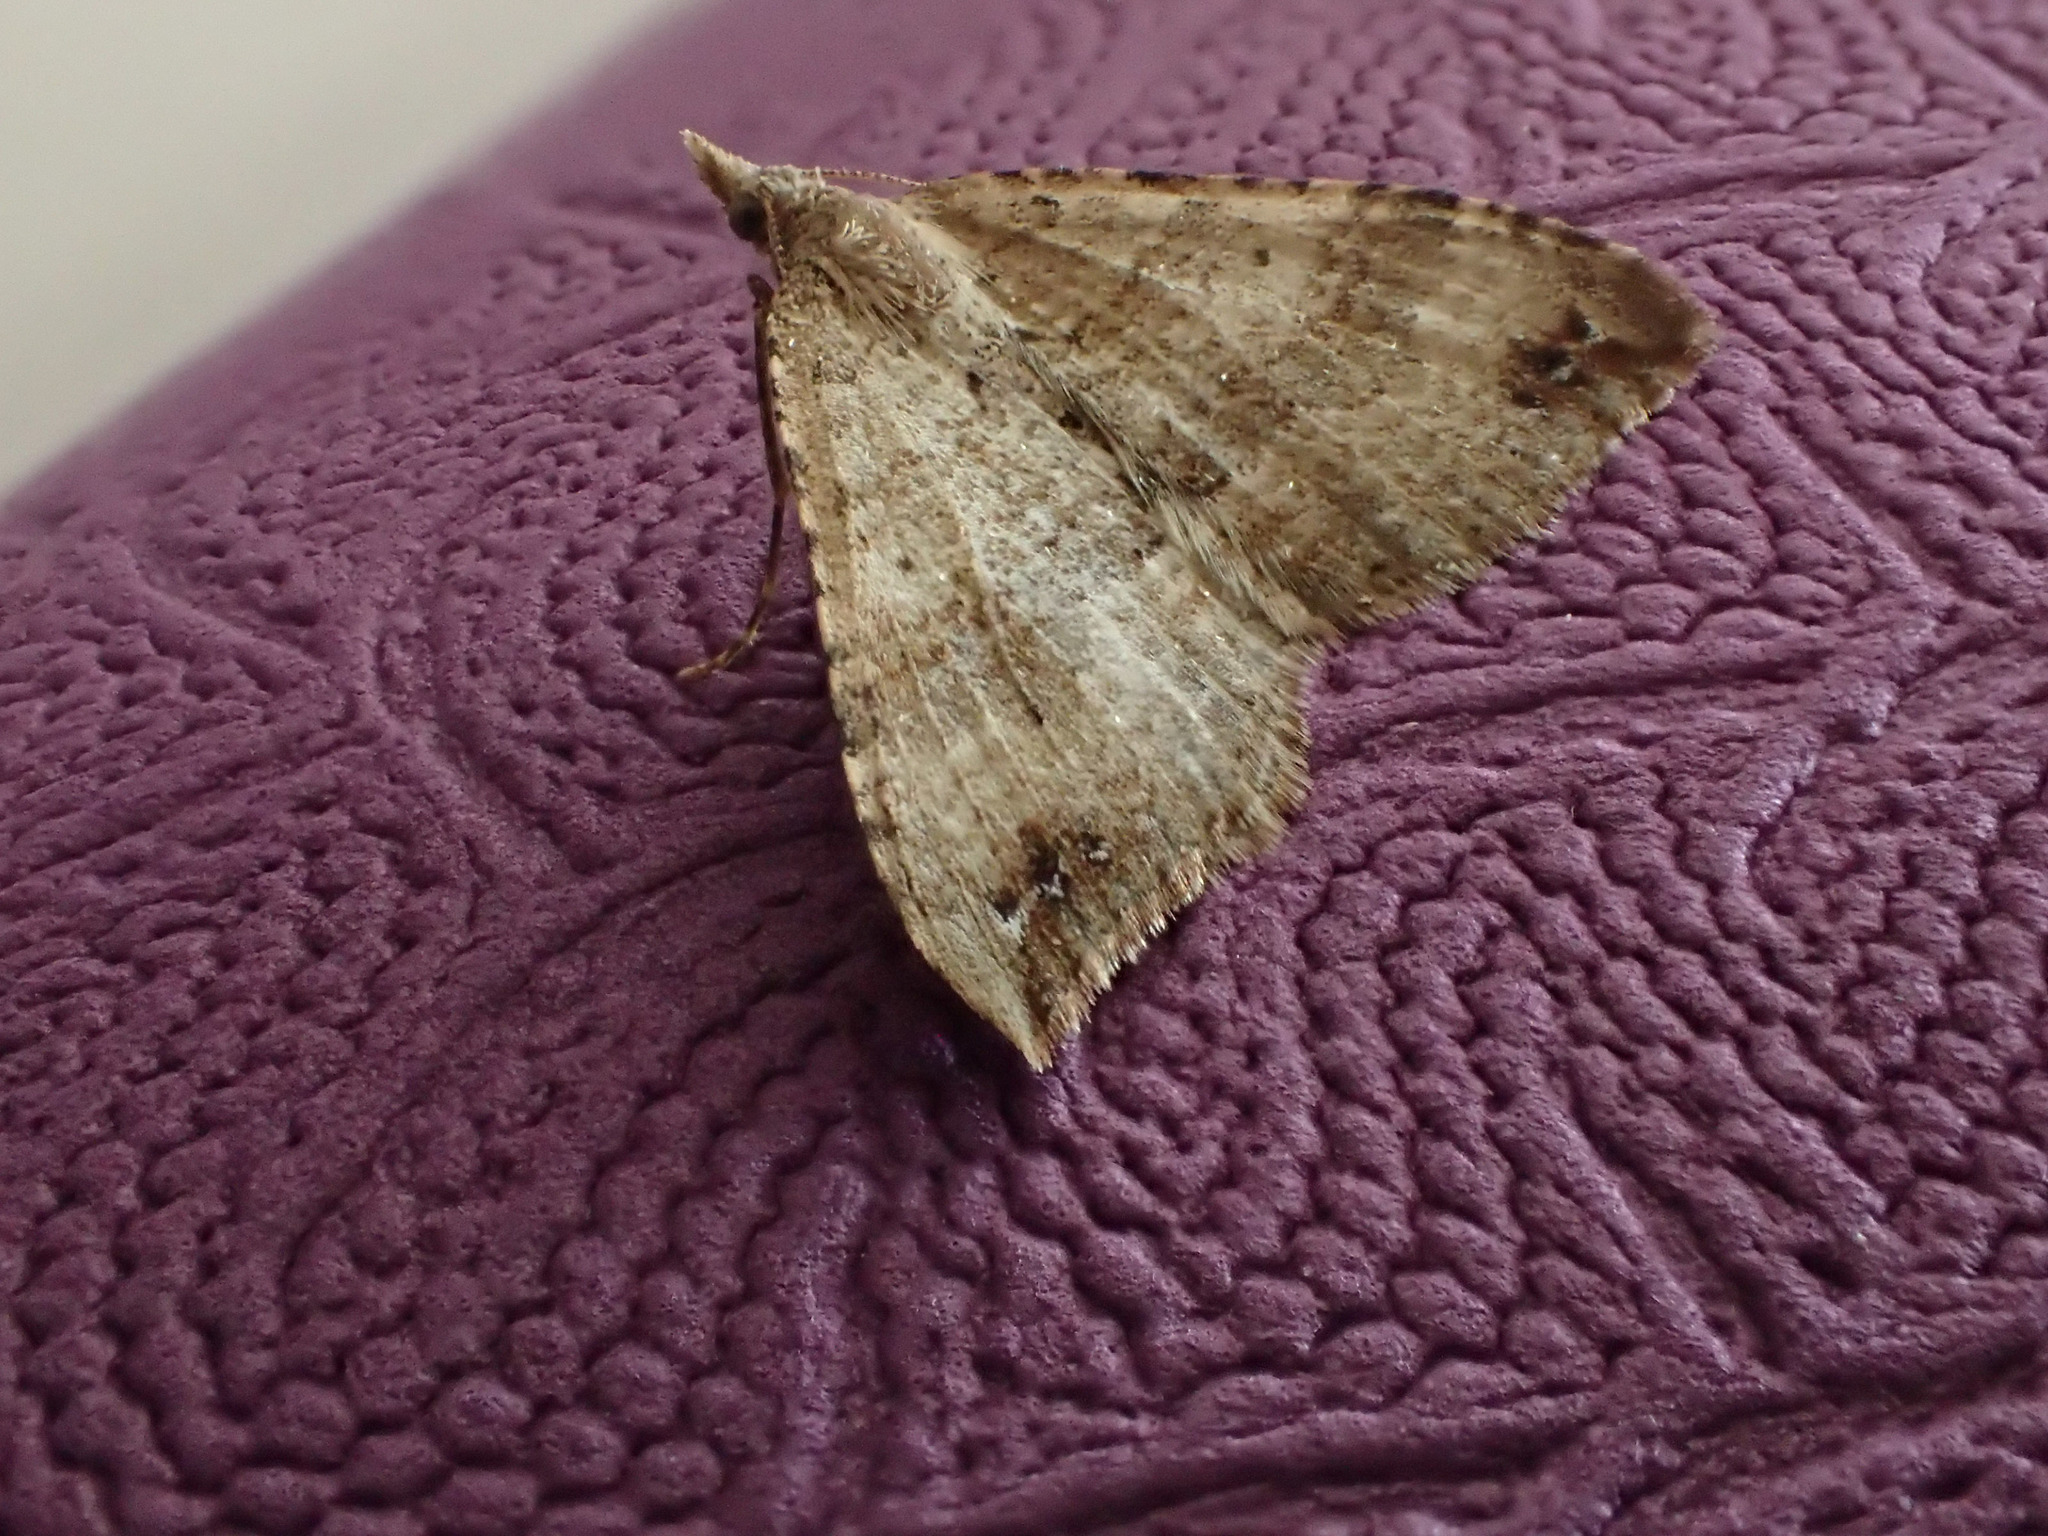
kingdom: Animalia
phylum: Arthropoda
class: Insecta
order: Lepidoptera
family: Geometridae
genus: Homodotis
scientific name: Homodotis falcata
